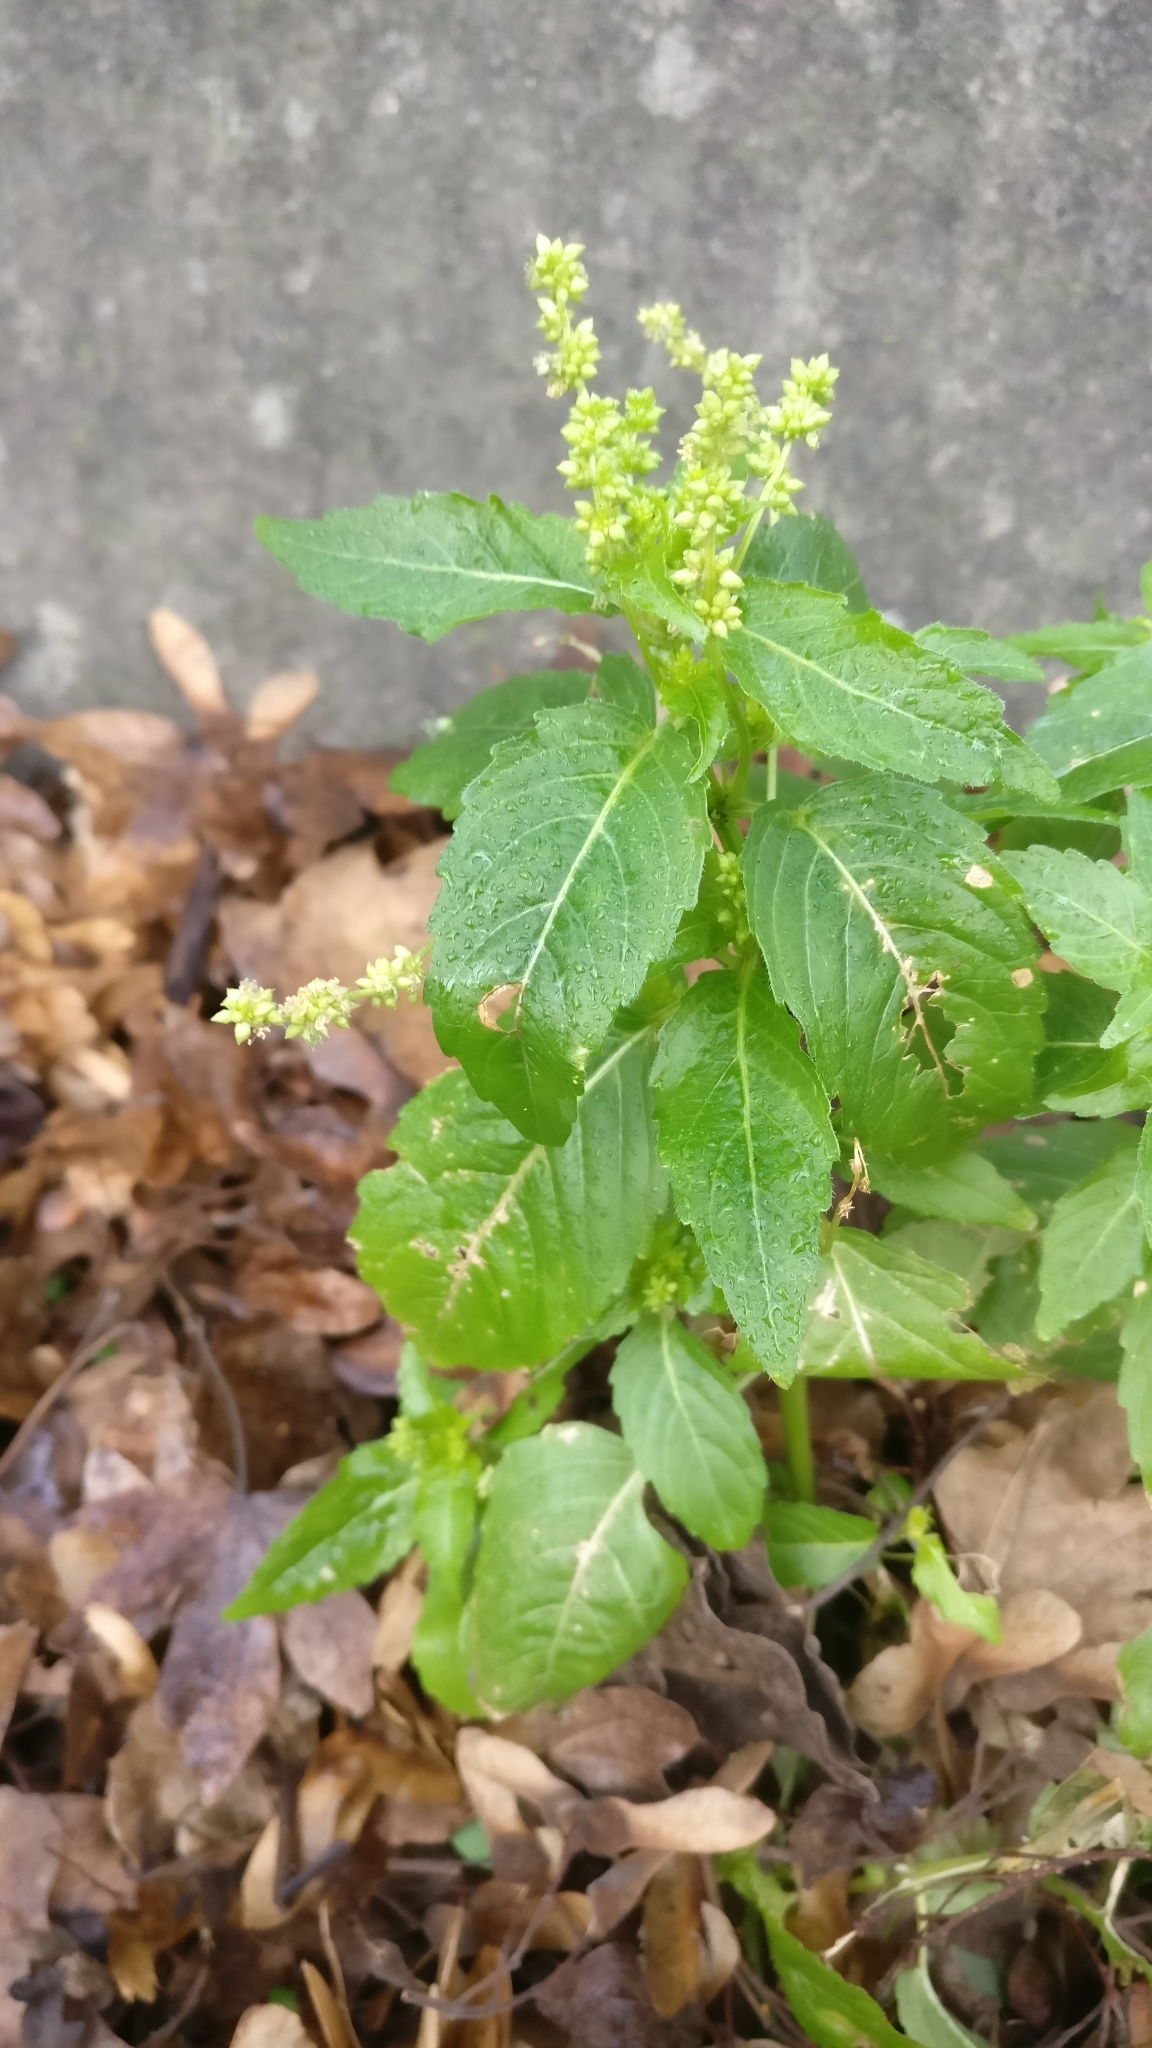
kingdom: Plantae
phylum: Tracheophyta
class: Magnoliopsida
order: Malpighiales
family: Euphorbiaceae
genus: Mercurialis
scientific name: Mercurialis annua
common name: Annual mercury
